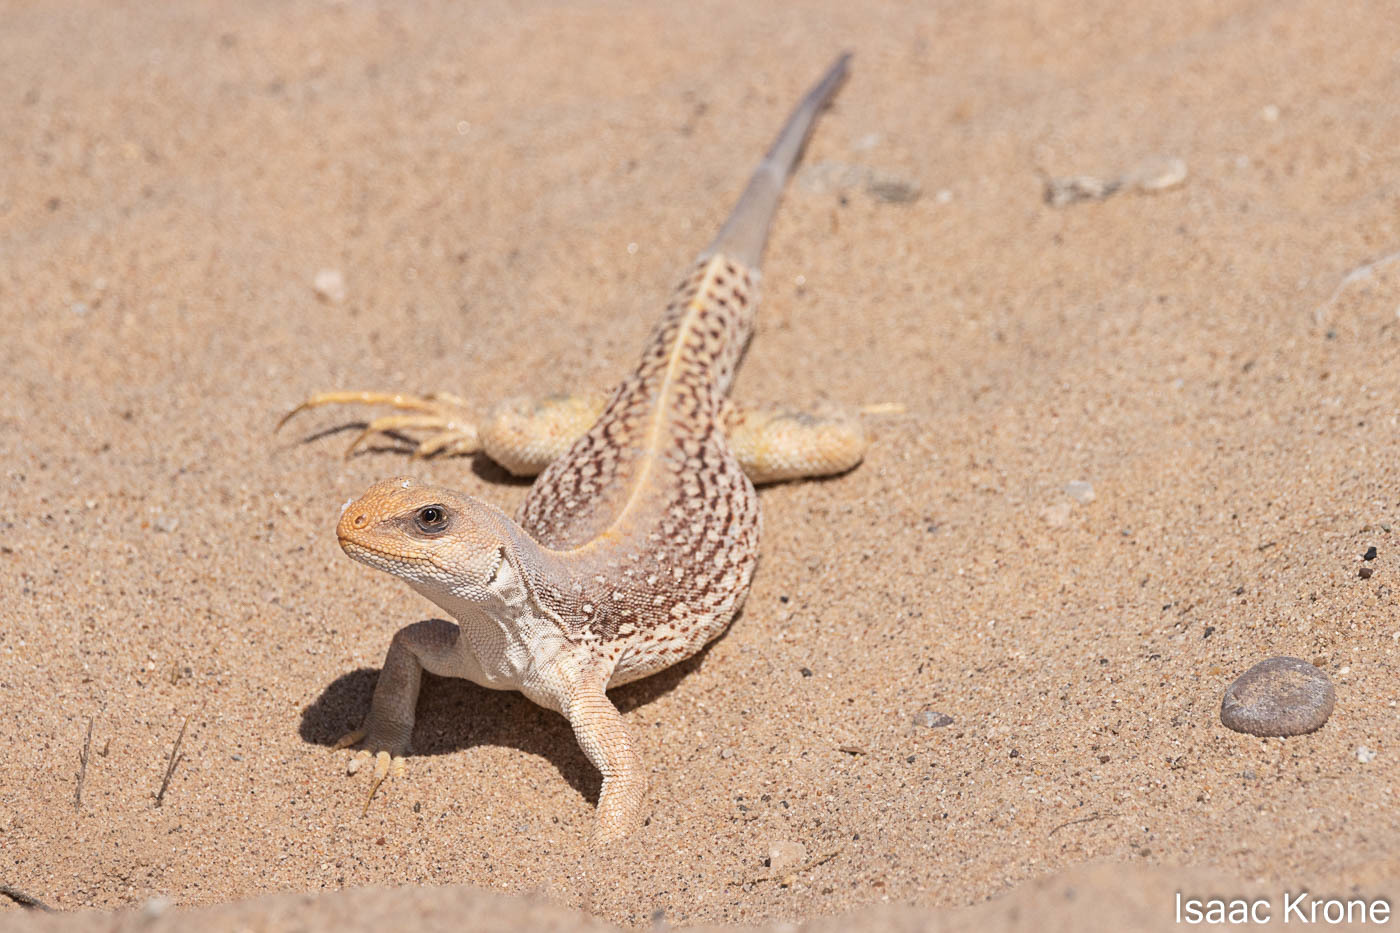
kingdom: Animalia
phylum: Chordata
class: Squamata
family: Iguanidae
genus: Dipsosaurus
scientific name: Dipsosaurus dorsalis
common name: Desert iguana
